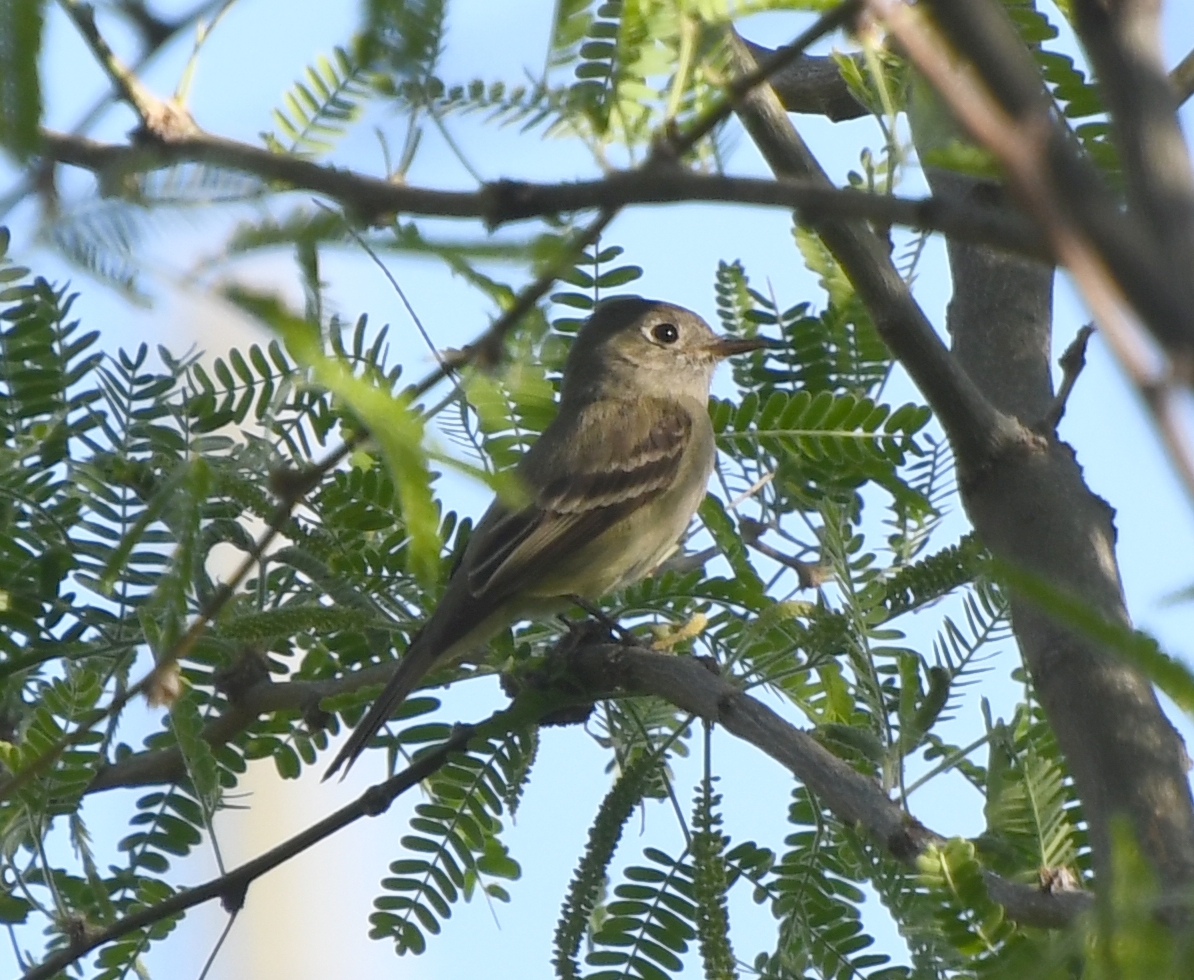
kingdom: Animalia
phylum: Chordata
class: Aves
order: Passeriformes
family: Tyrannidae
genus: Empidonax
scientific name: Empidonax hammondii
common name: Hammond's flycatcher
